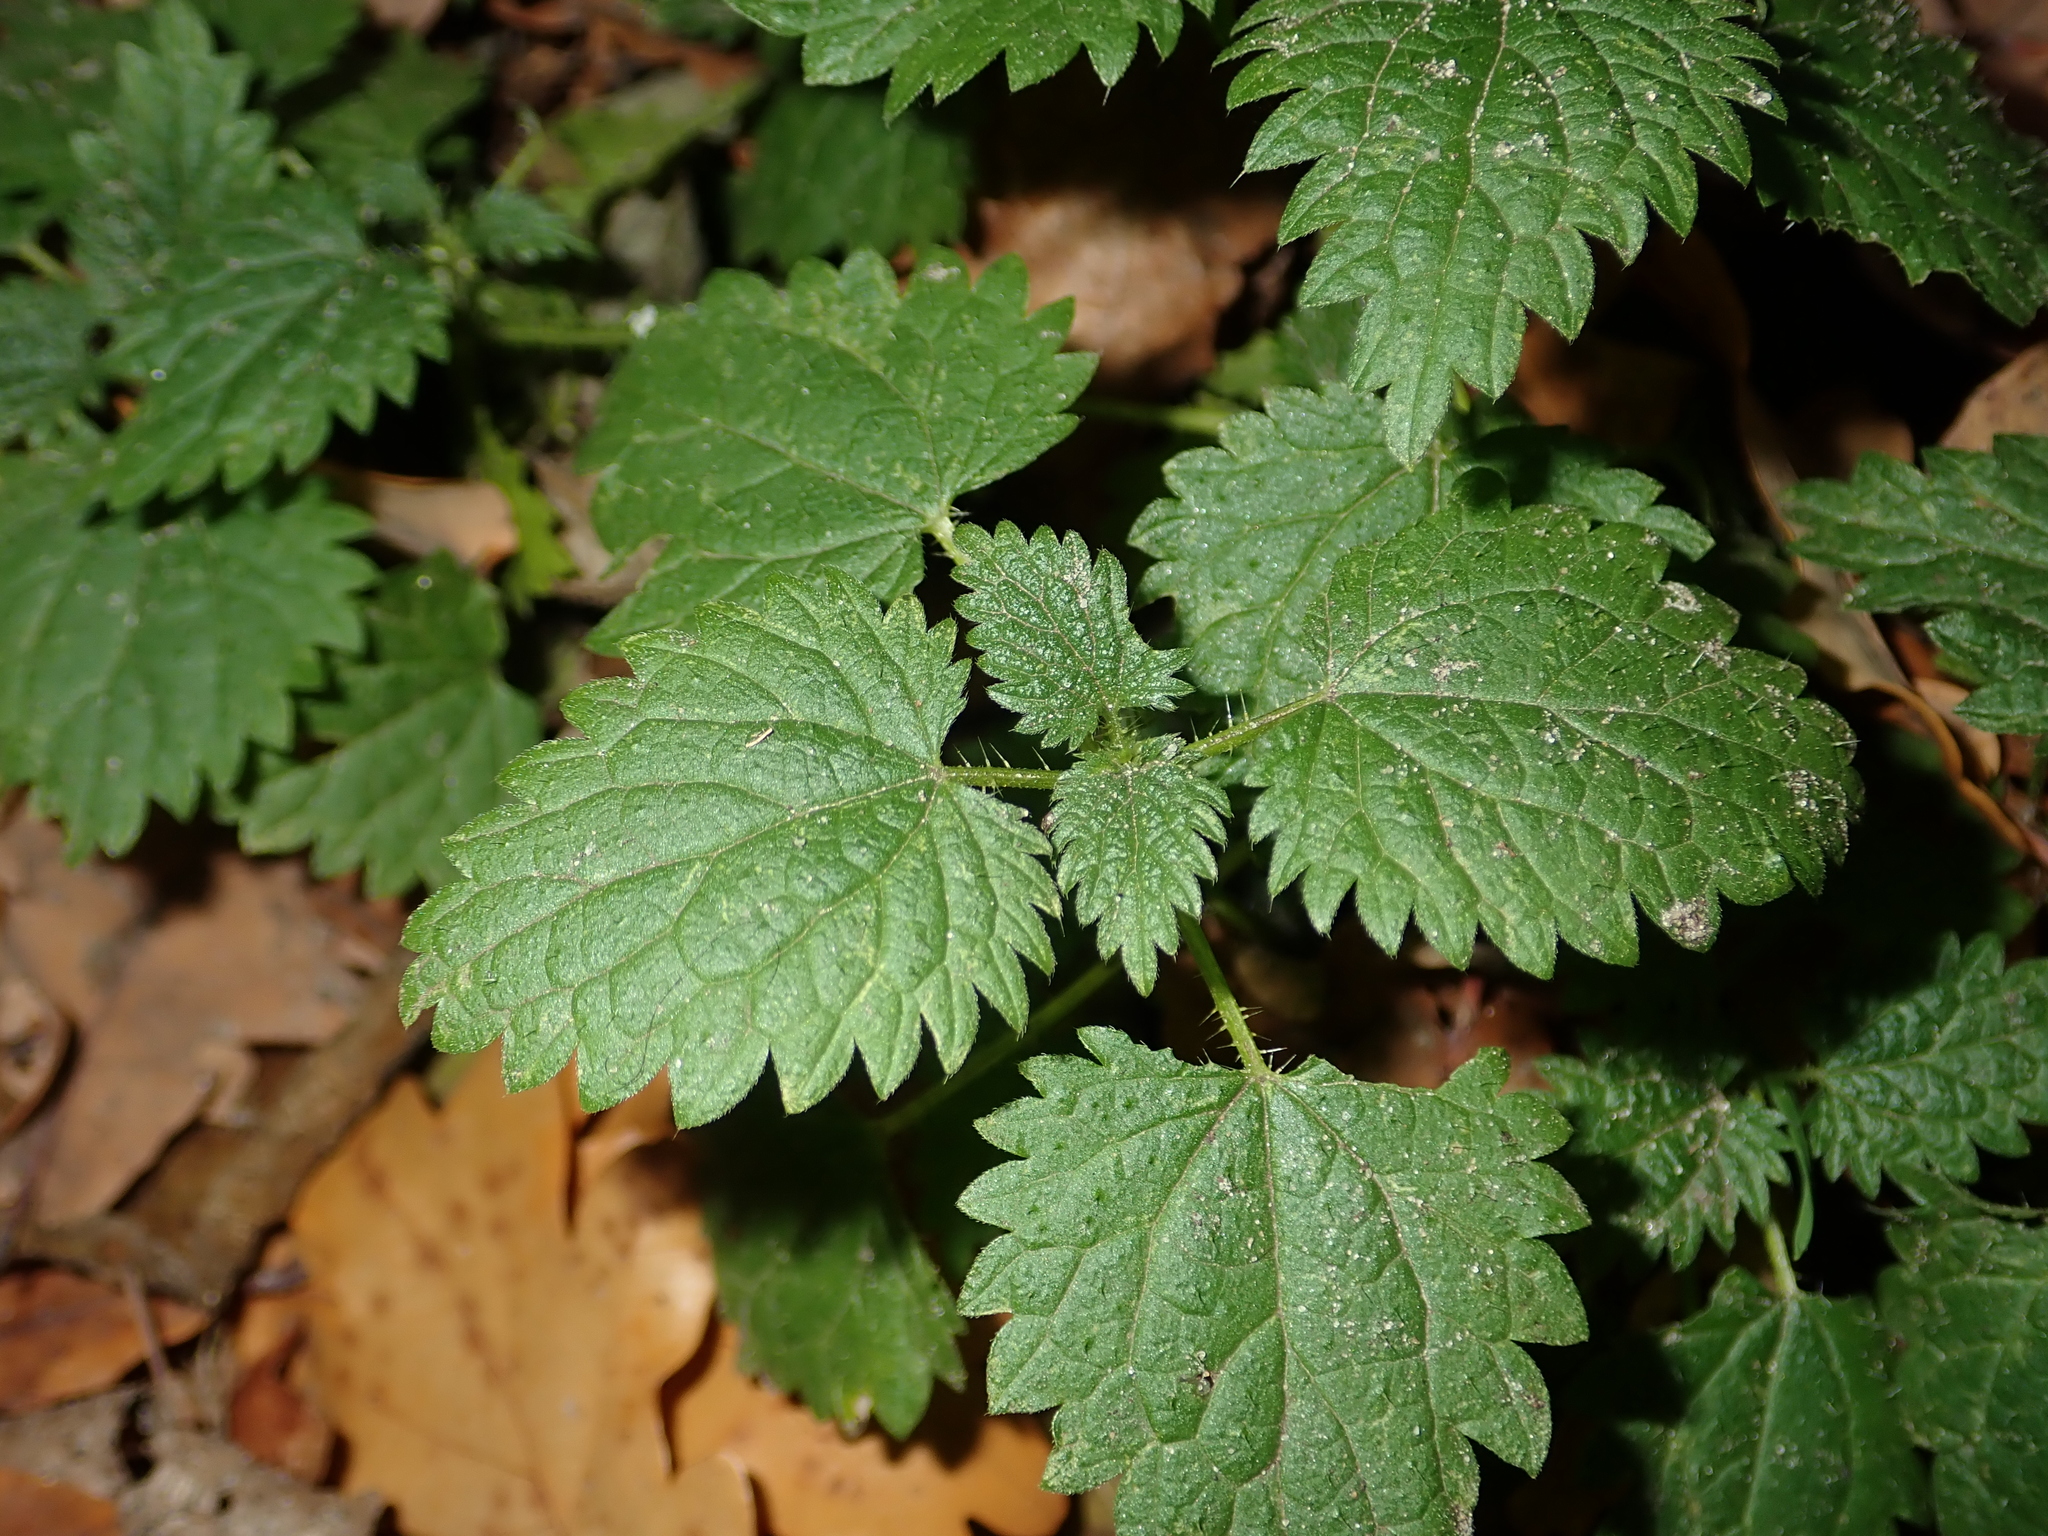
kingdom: Plantae
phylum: Tracheophyta
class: Magnoliopsida
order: Rosales
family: Urticaceae
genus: Urtica
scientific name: Urtica dioica
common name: Common nettle
